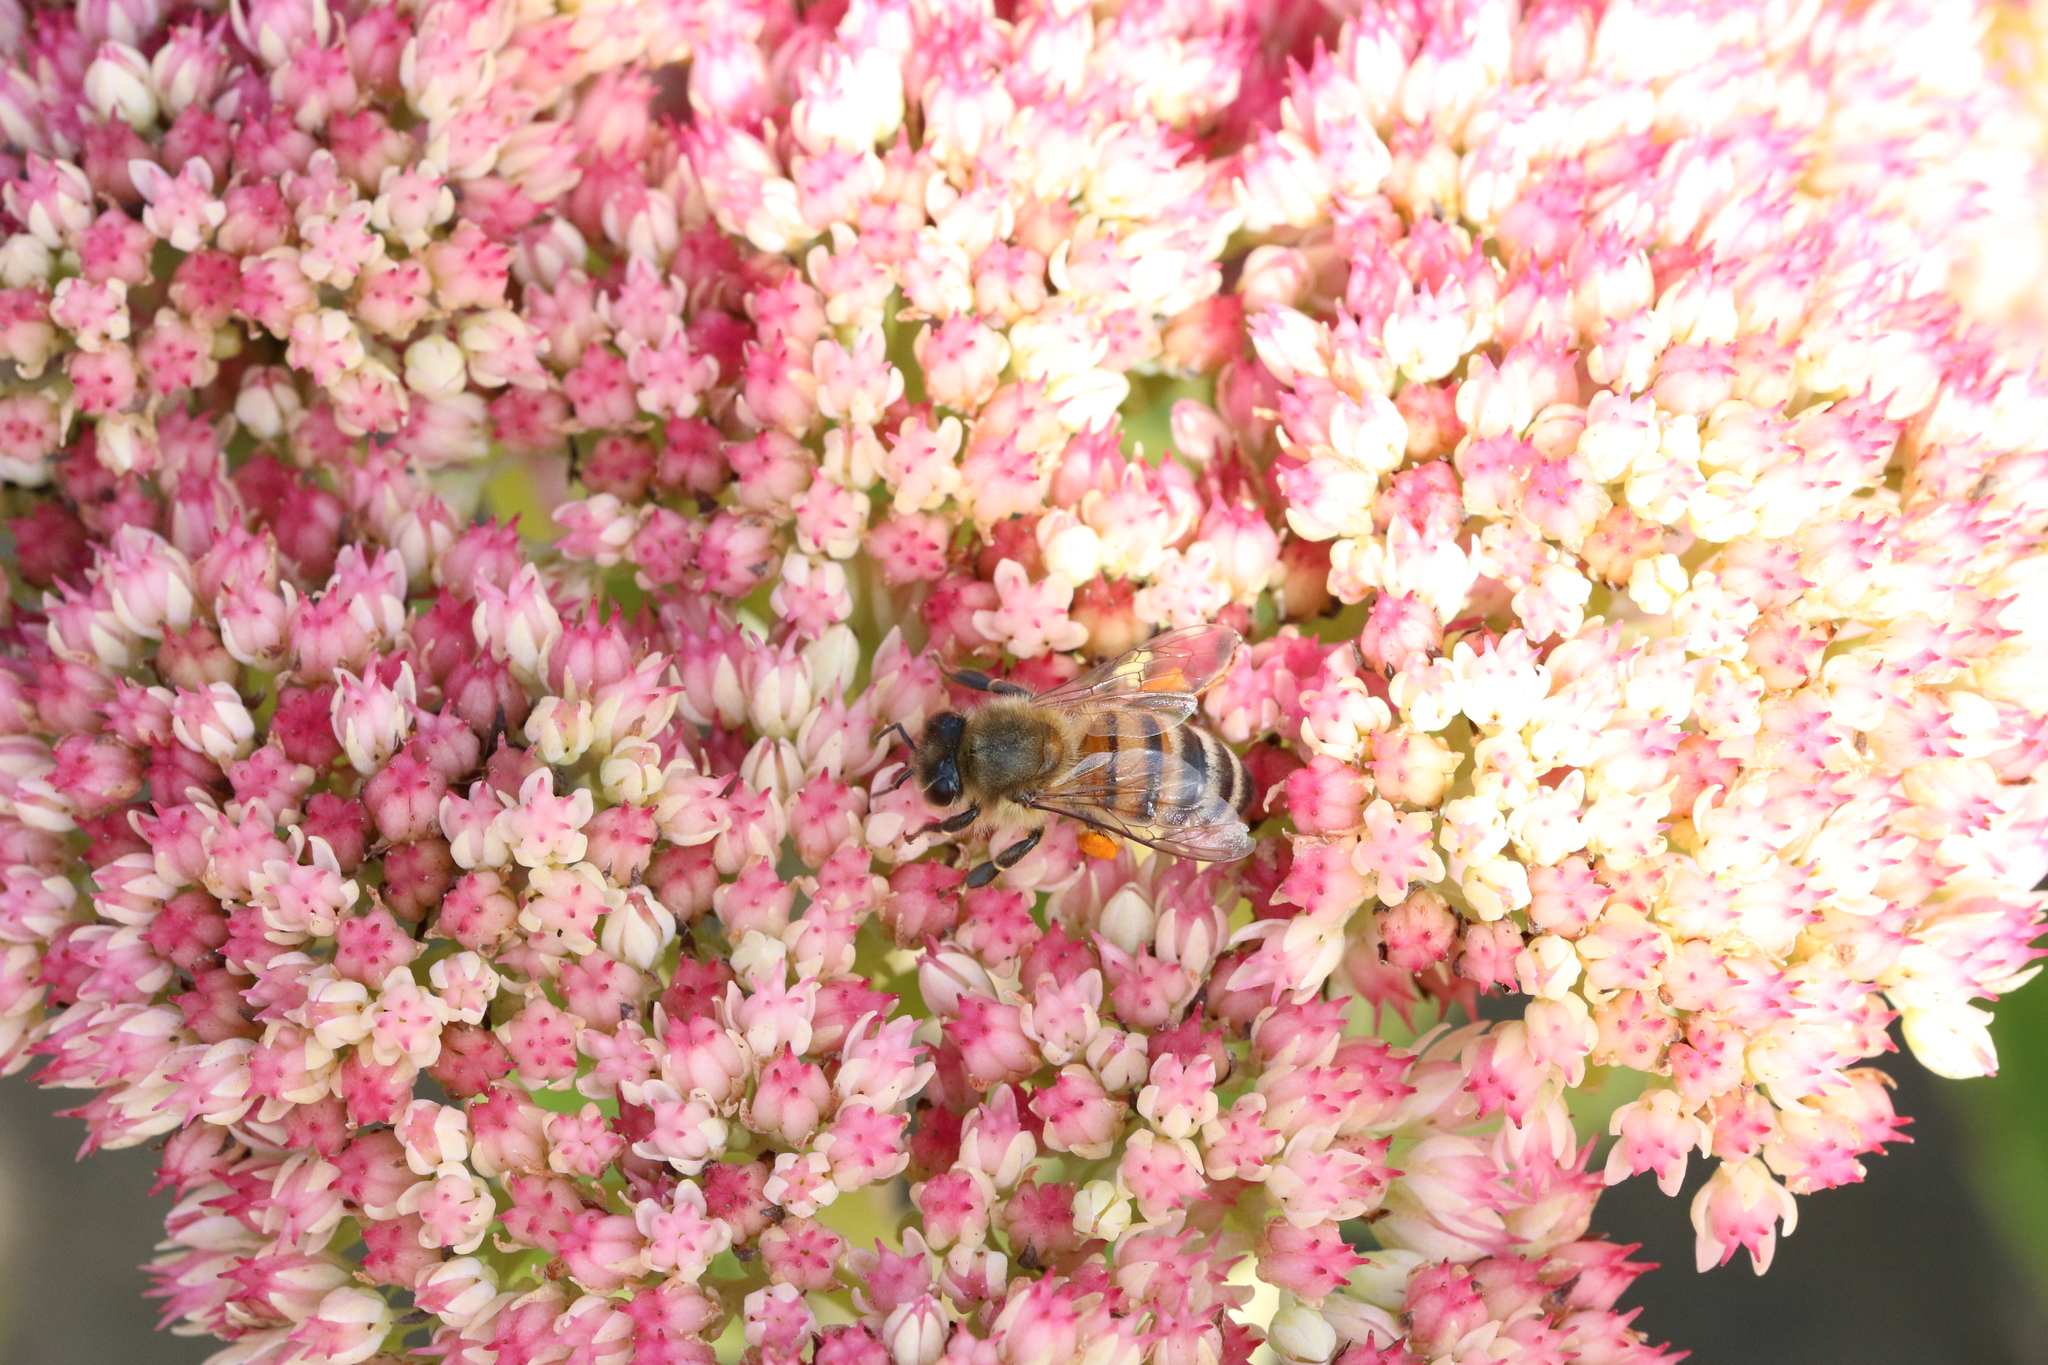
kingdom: Animalia
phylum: Arthropoda
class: Insecta
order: Hymenoptera
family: Apidae
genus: Apis
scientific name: Apis mellifera
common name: Honey bee
